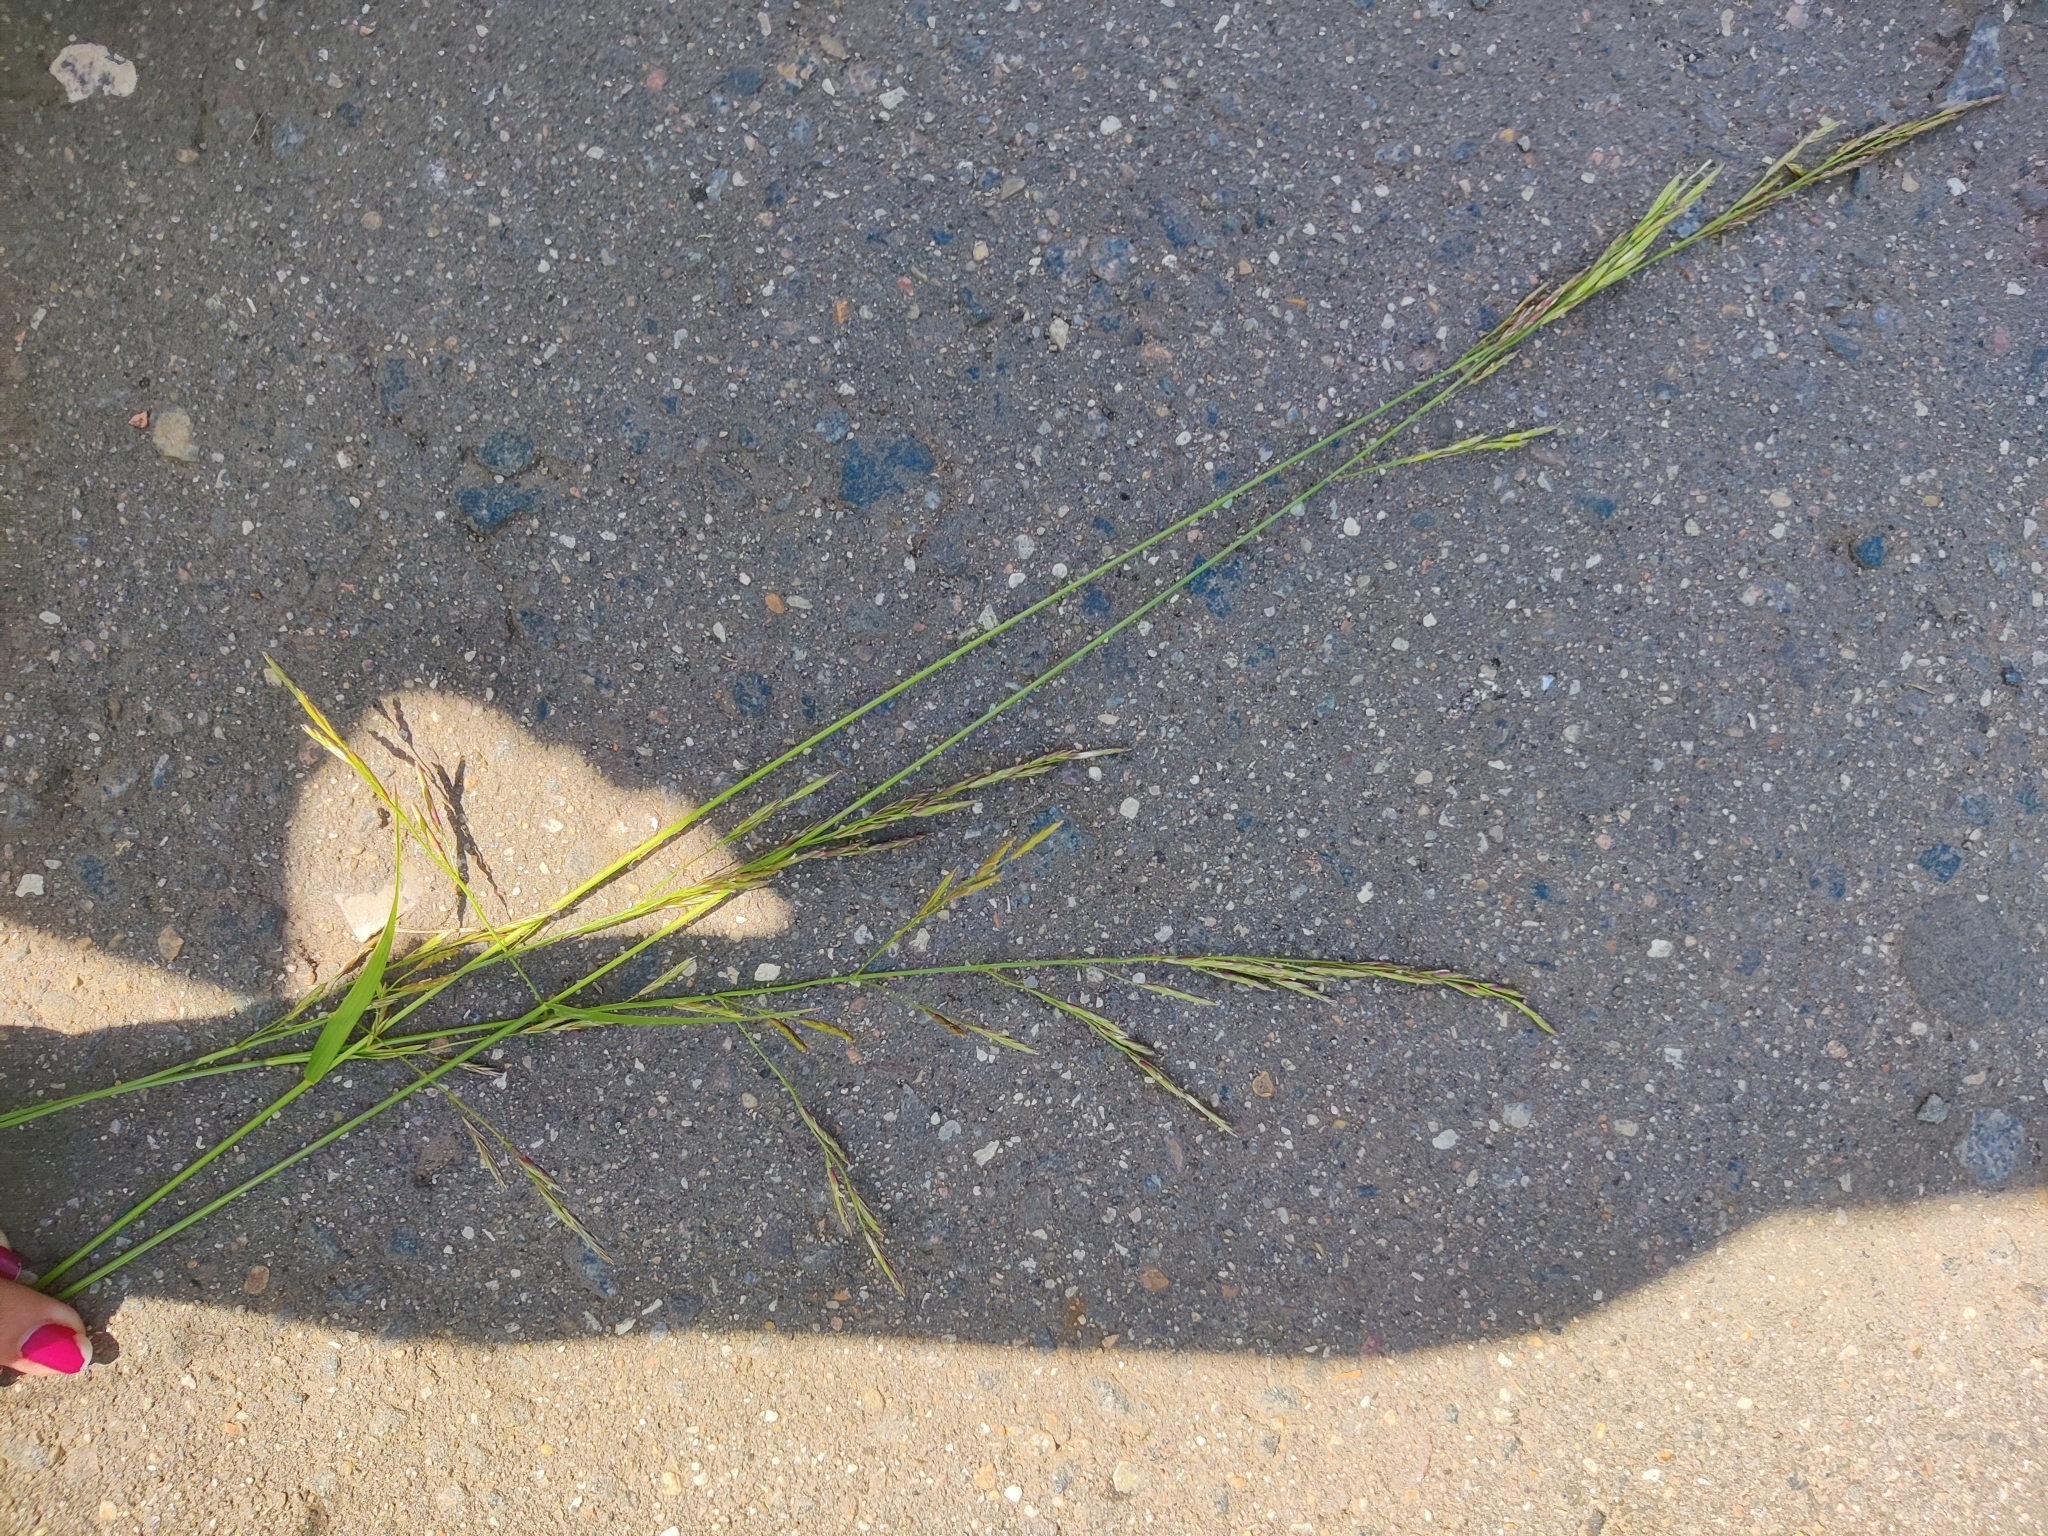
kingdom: Plantae
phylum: Tracheophyta
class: Liliopsida
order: Poales
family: Poaceae
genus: Lolium
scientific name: Lolium pratense
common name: Dover grass
